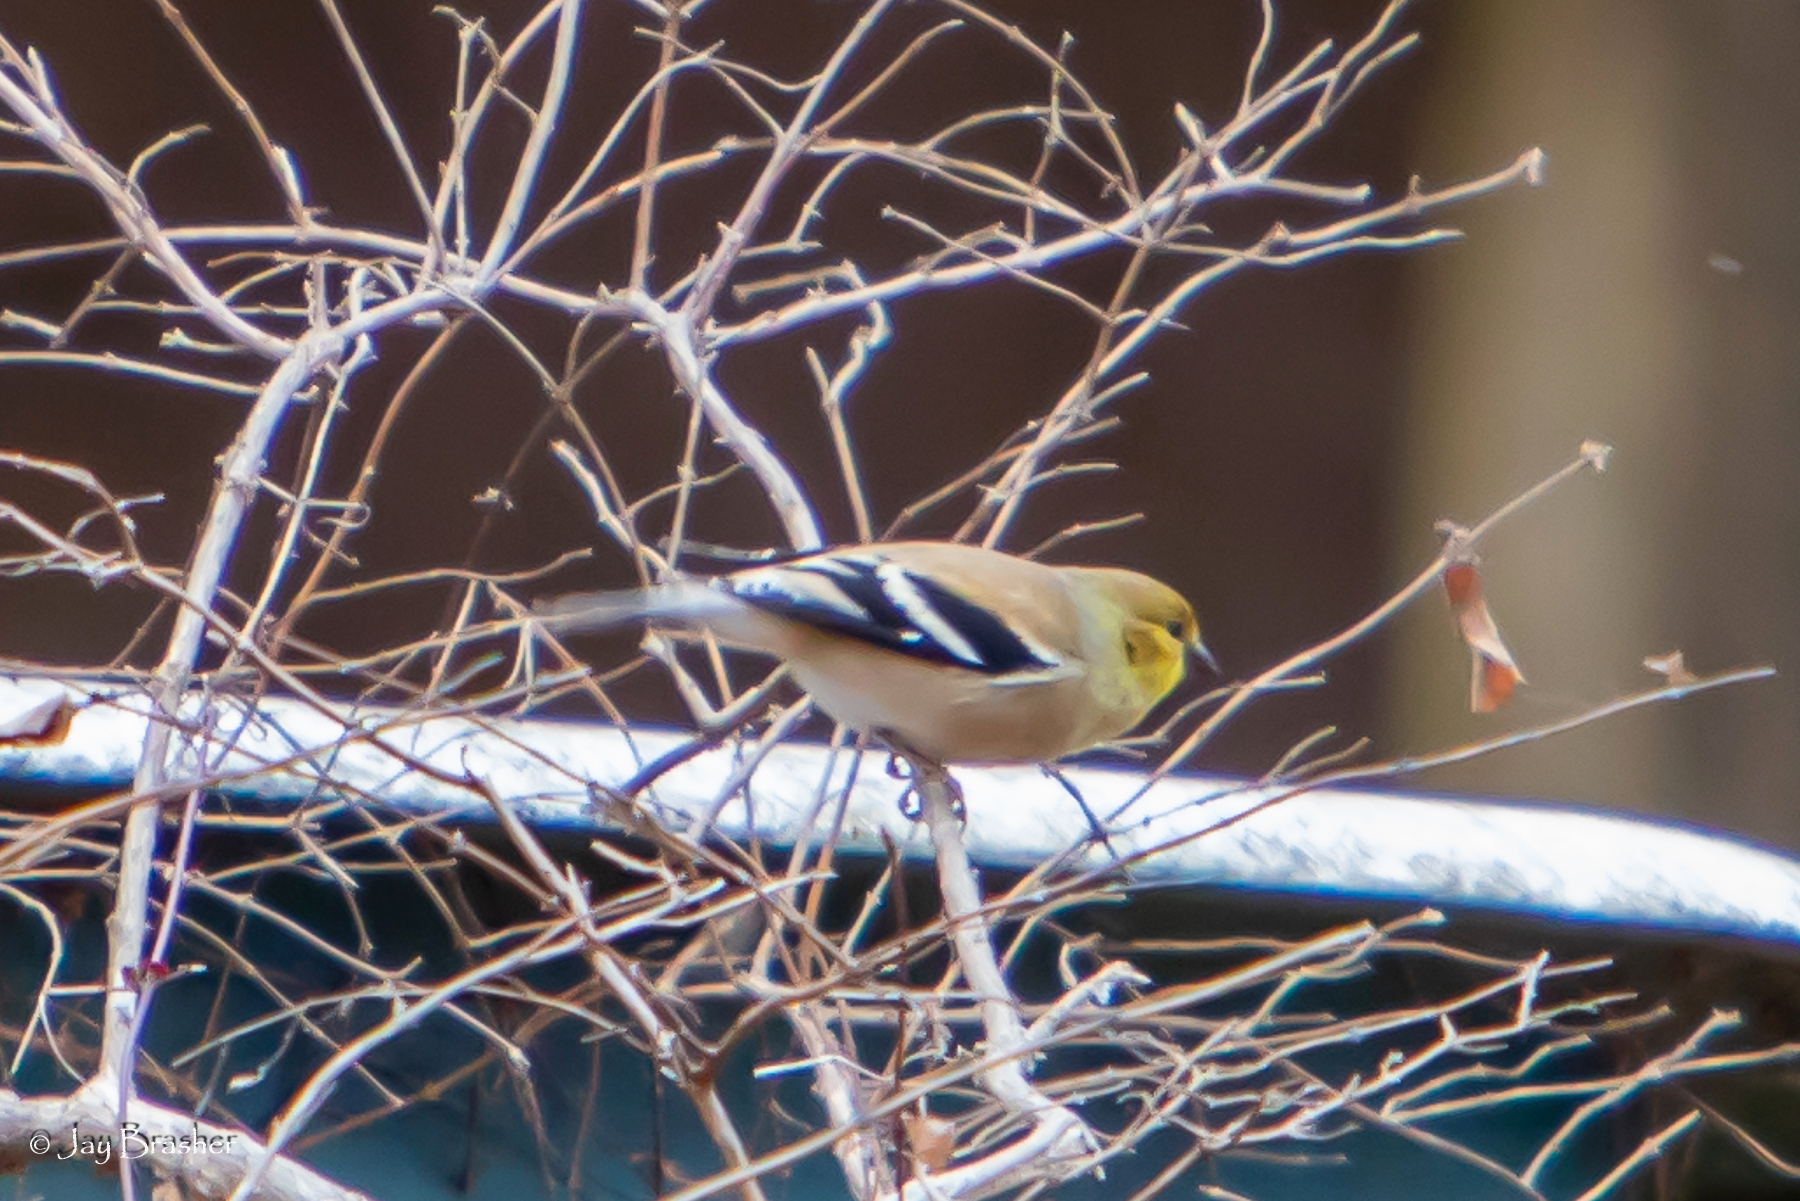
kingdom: Animalia
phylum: Chordata
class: Aves
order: Passeriformes
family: Fringillidae
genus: Spinus
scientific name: Spinus tristis
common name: American goldfinch
